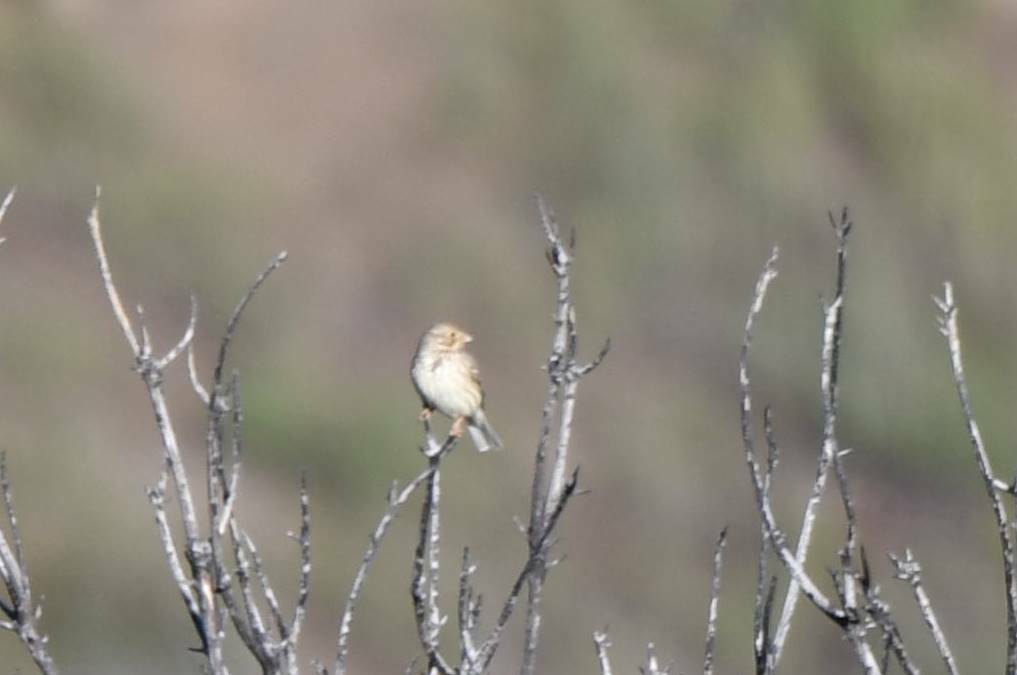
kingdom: Animalia
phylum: Chordata
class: Aves
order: Passeriformes
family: Emberizidae
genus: Emberiza
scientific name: Emberiza calandra
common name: Corn bunting
